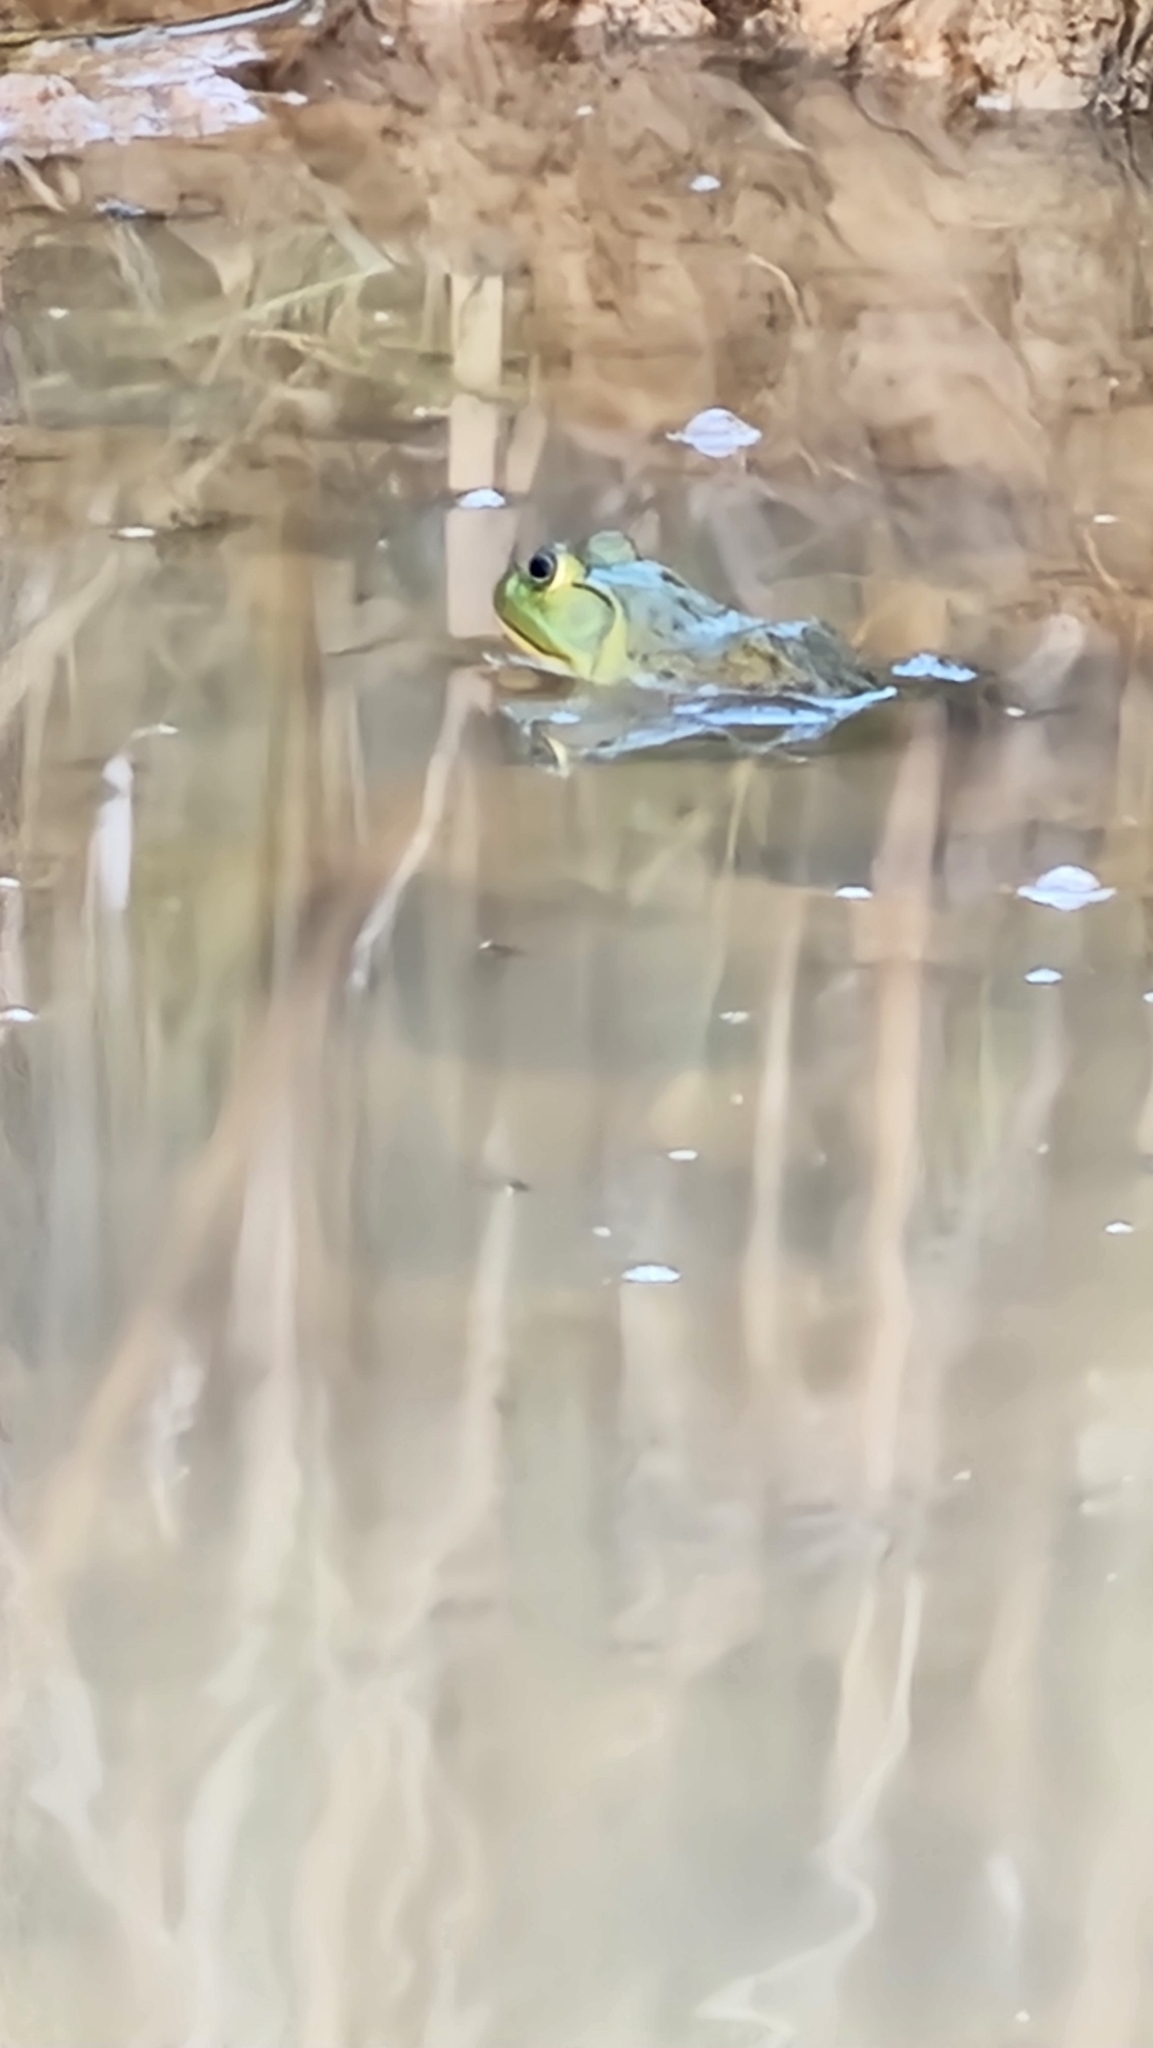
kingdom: Animalia
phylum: Chordata
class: Amphibia
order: Anura
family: Ranidae
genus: Lithobates
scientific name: Lithobates catesbeianus
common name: American bullfrog
